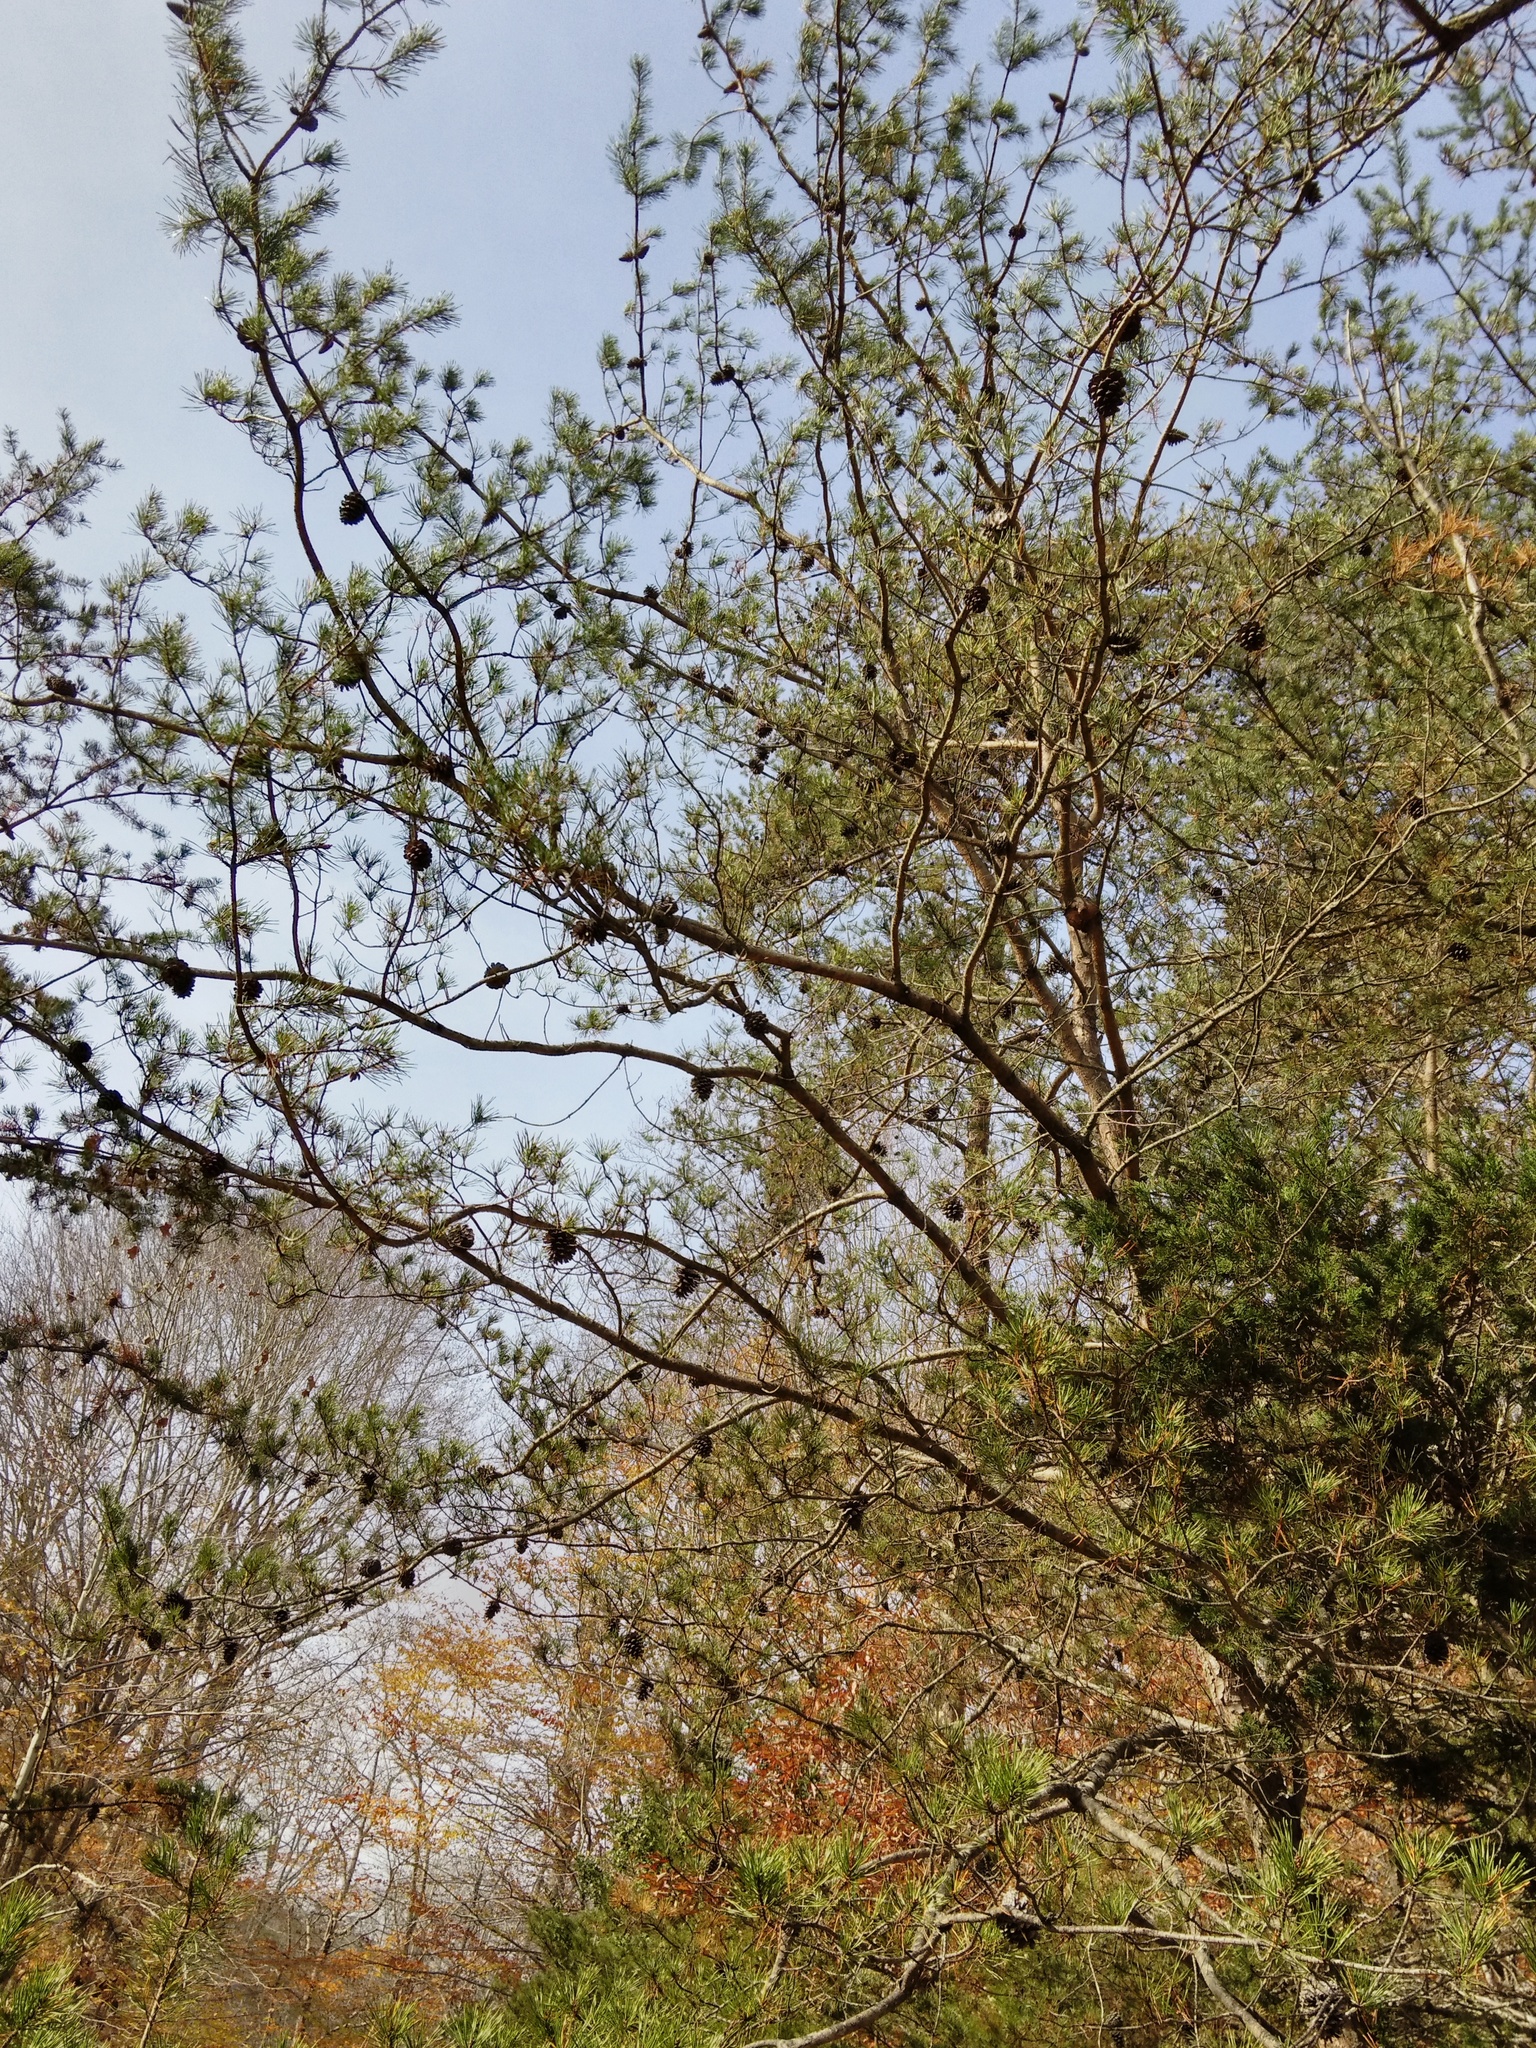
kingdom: Plantae
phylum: Tracheophyta
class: Pinopsida
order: Pinales
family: Pinaceae
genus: Pinus
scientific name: Pinus virginiana
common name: Scrub pine
